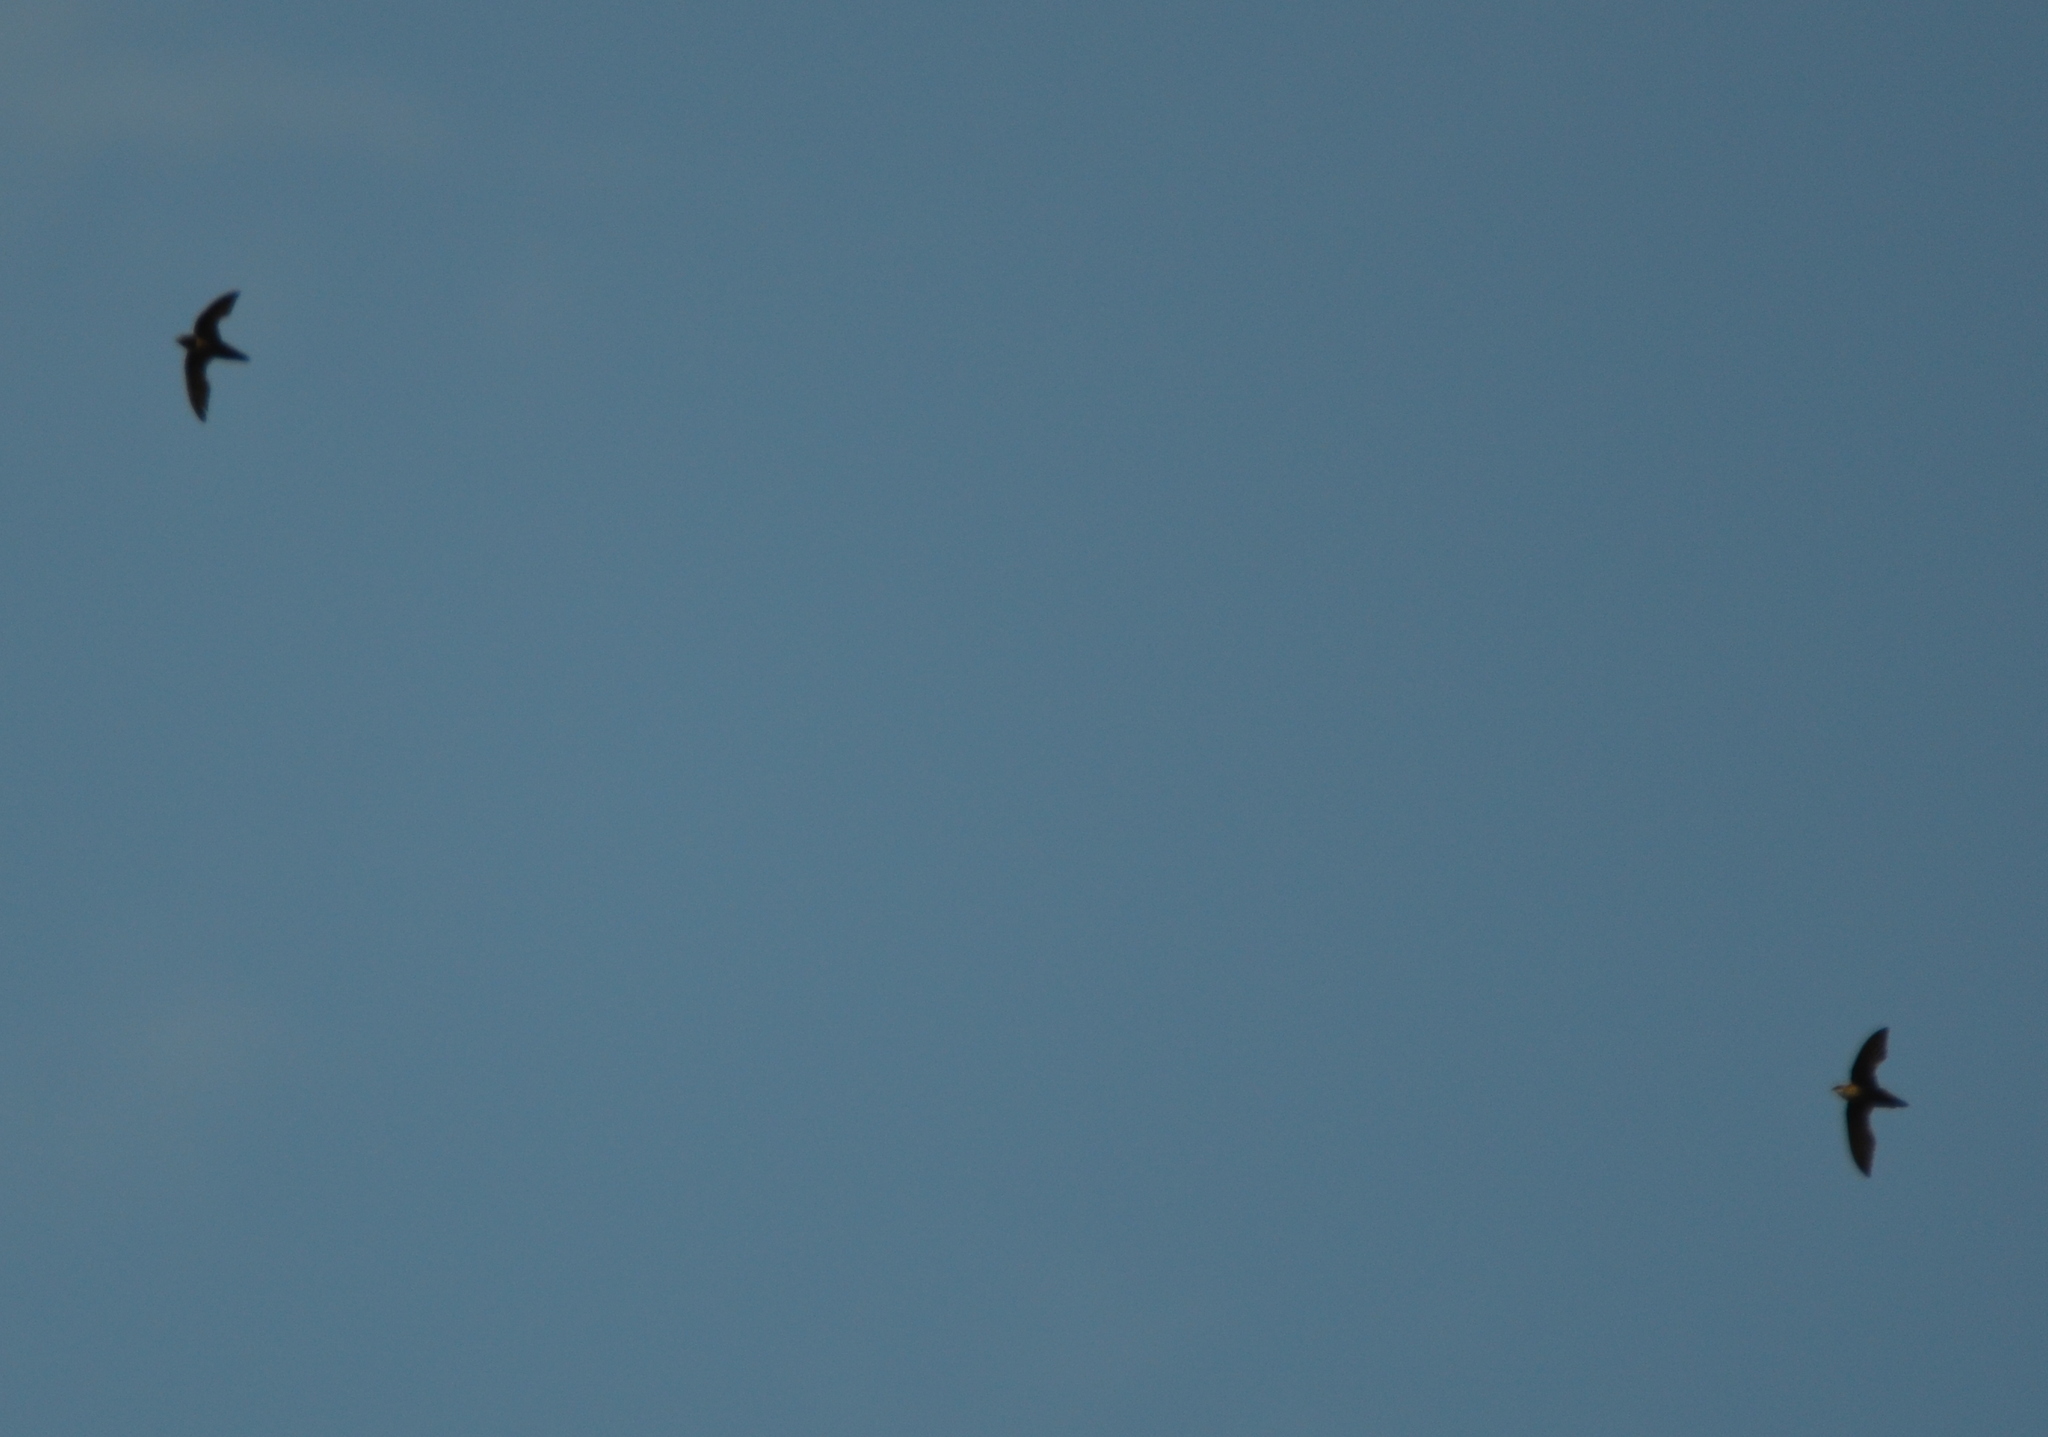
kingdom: Animalia
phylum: Chordata
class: Aves
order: Apodiformes
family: Apodidae
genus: Chaetura
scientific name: Chaetura pelagica
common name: Chimney swift
